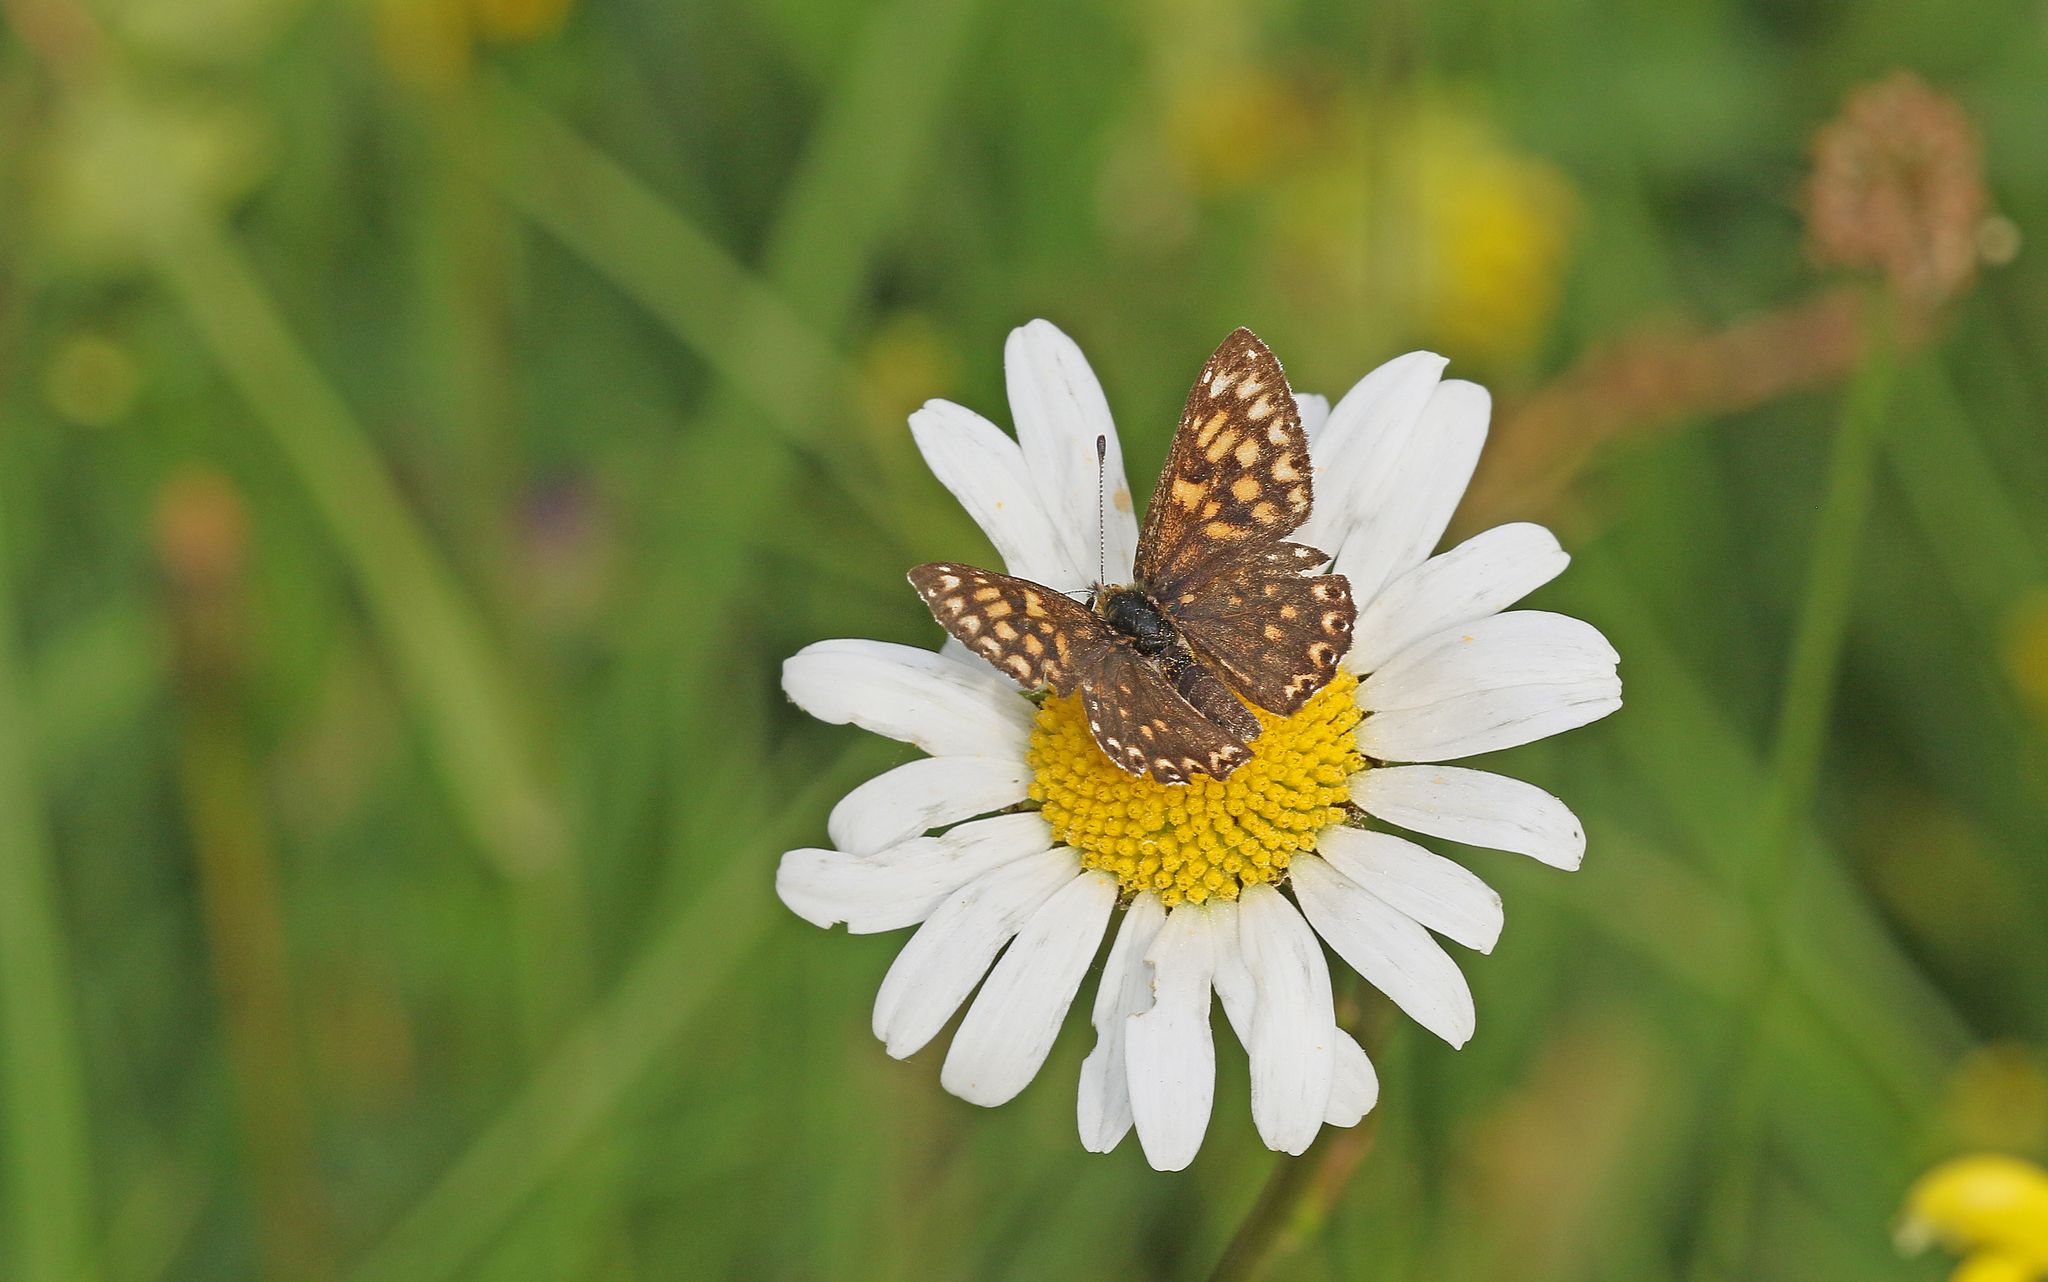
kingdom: Animalia
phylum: Arthropoda
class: Insecta
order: Lepidoptera
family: Riodinidae
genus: Hamearis
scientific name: Hamearis lucina
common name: Duke of burgundy fritillary
